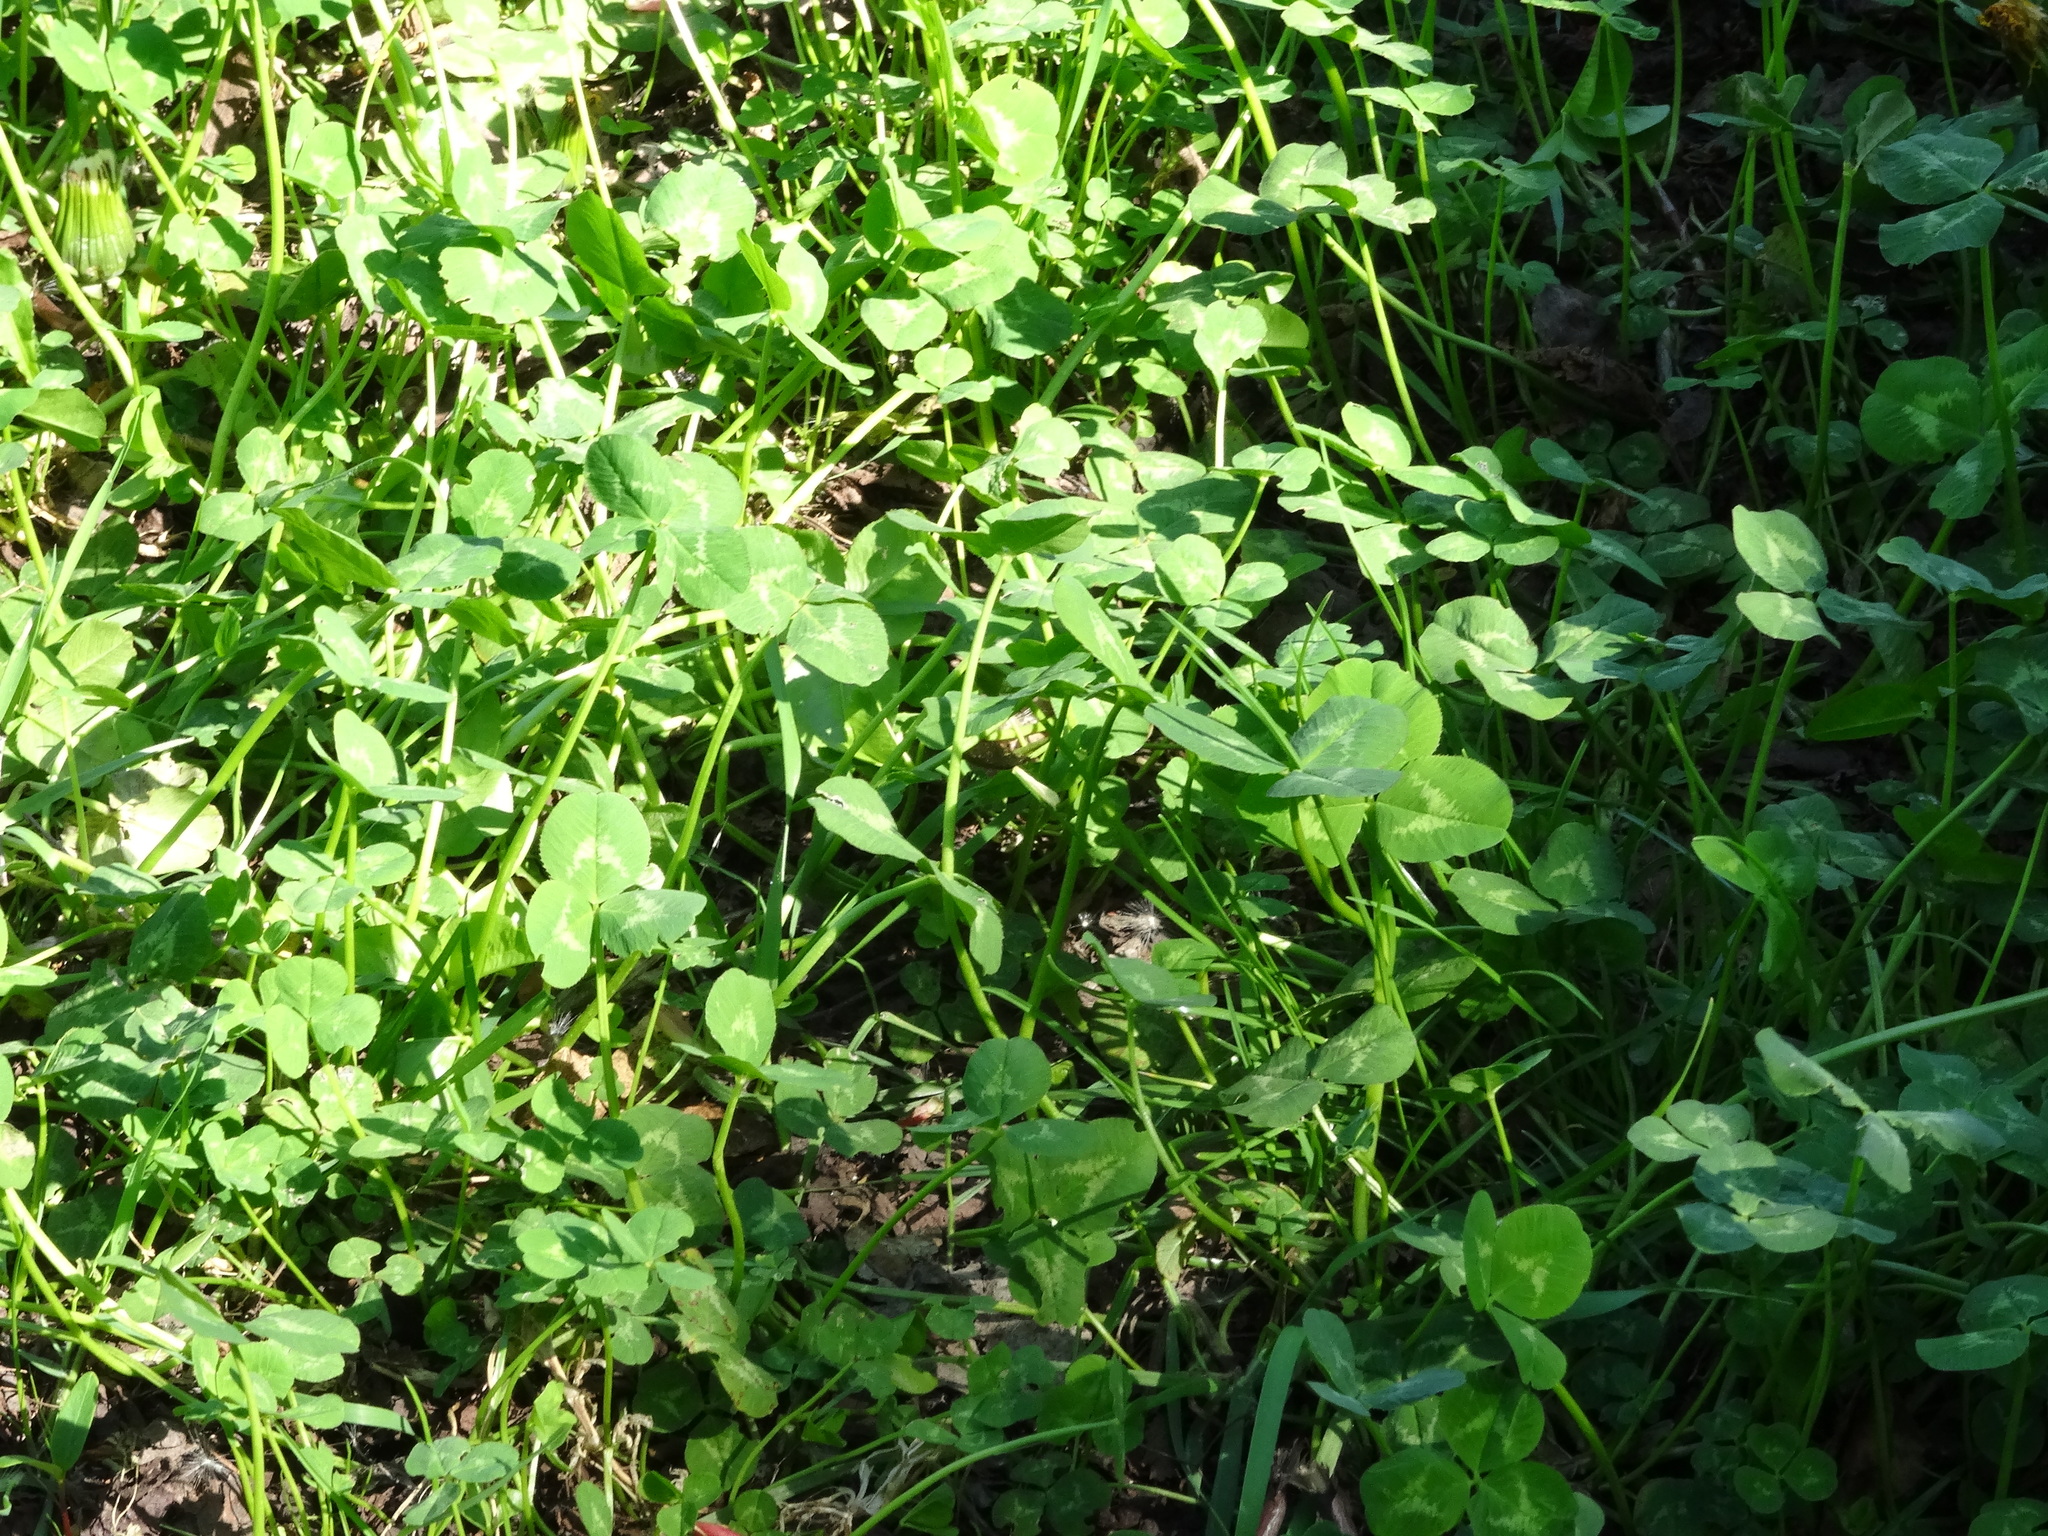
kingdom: Plantae
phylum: Tracheophyta
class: Magnoliopsida
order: Fabales
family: Fabaceae
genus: Trifolium
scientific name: Trifolium repens
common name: White clover
